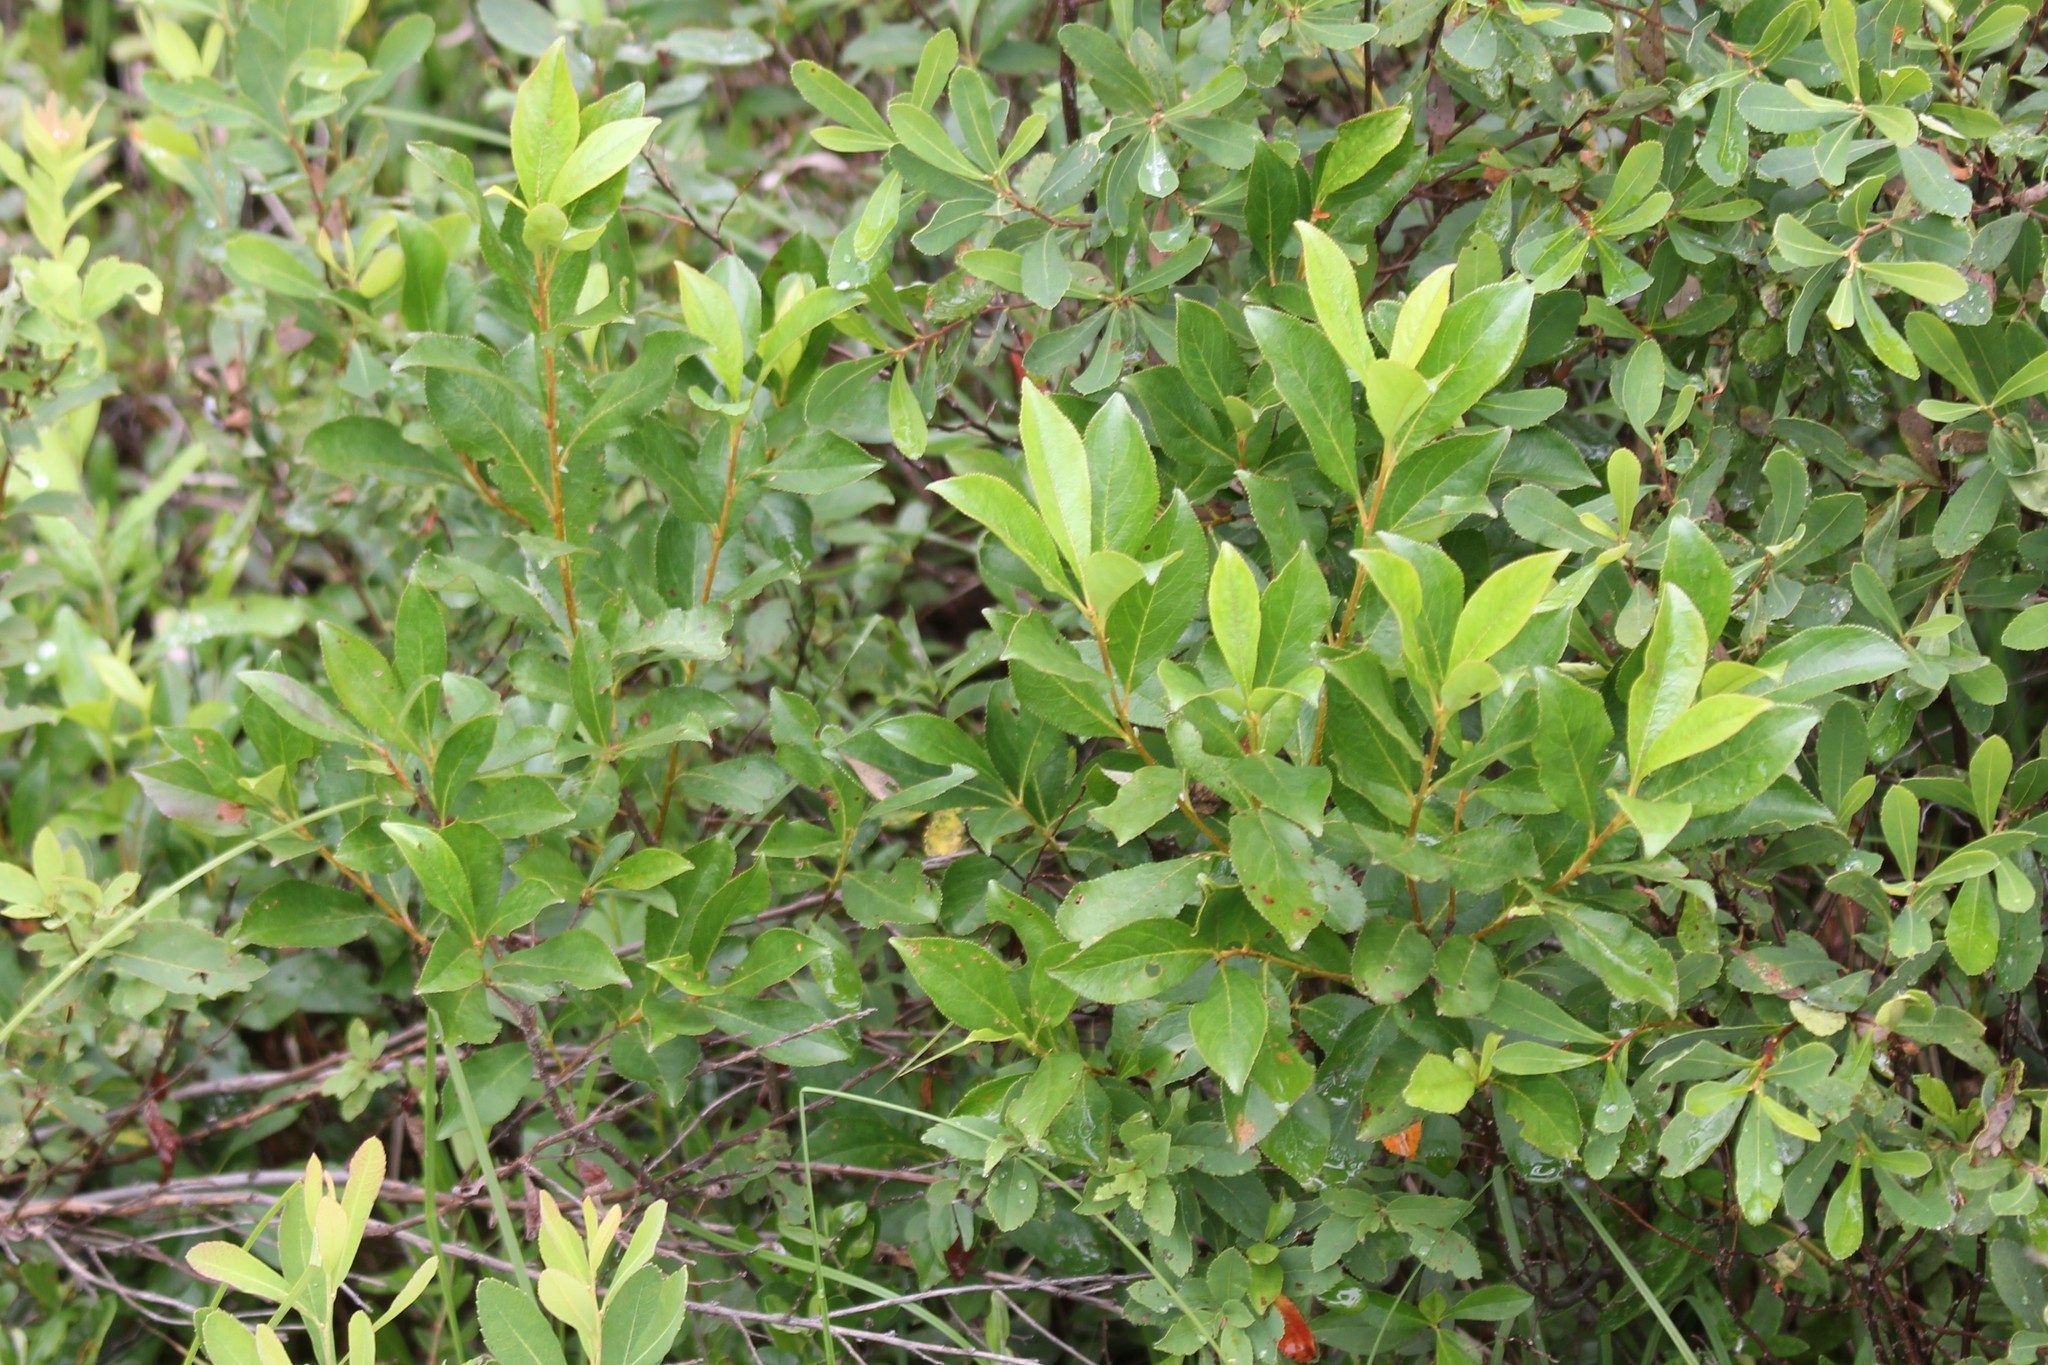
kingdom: Plantae
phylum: Tracheophyta
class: Magnoliopsida
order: Rosales
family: Rosaceae
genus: Aronia
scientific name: Aronia melanocarpa
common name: Black chokeberry
